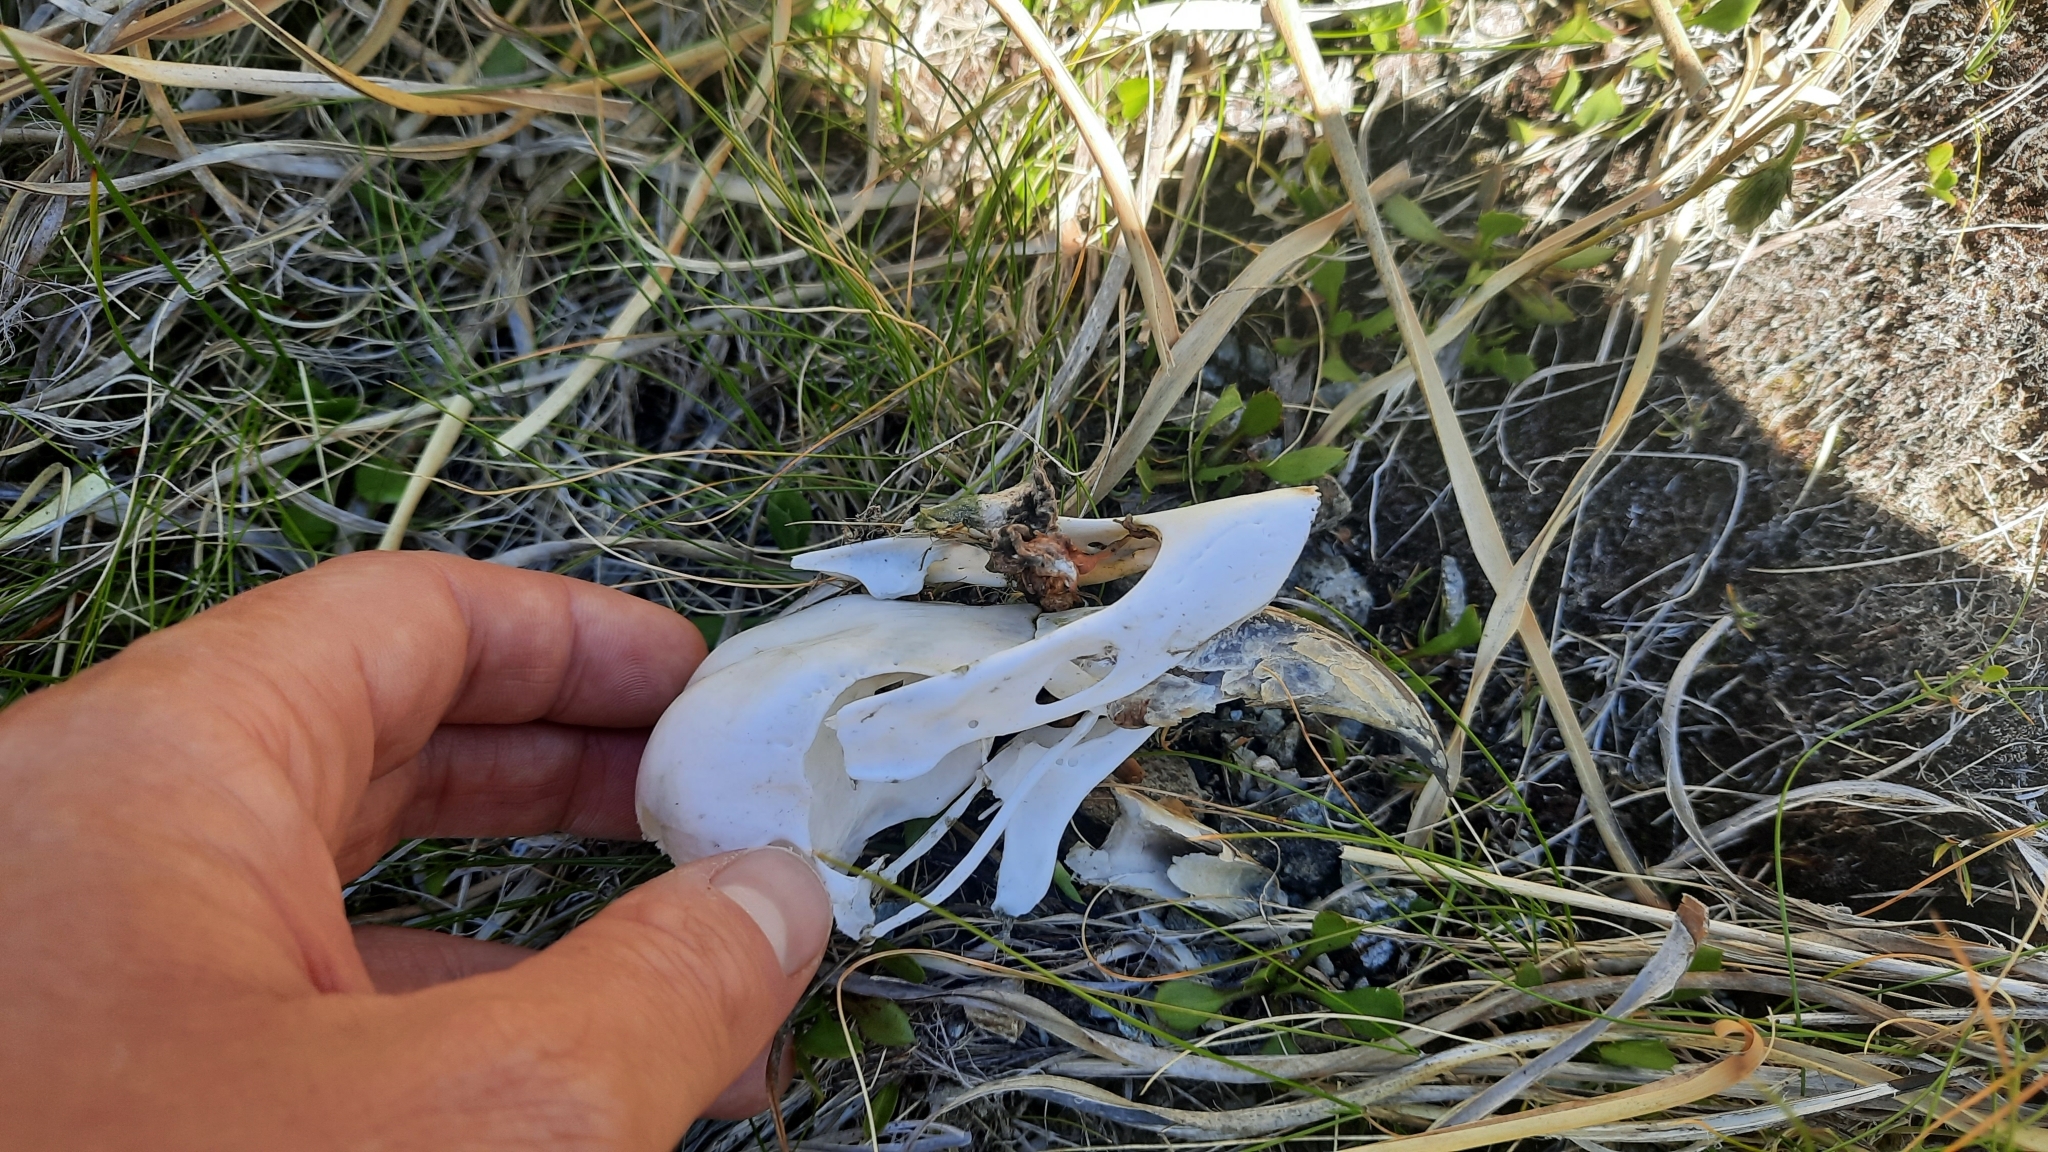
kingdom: Animalia
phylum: Chordata
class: Aves
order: Psittaciformes
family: Psittacidae
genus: Nestor
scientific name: Nestor notabilis
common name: Kea
